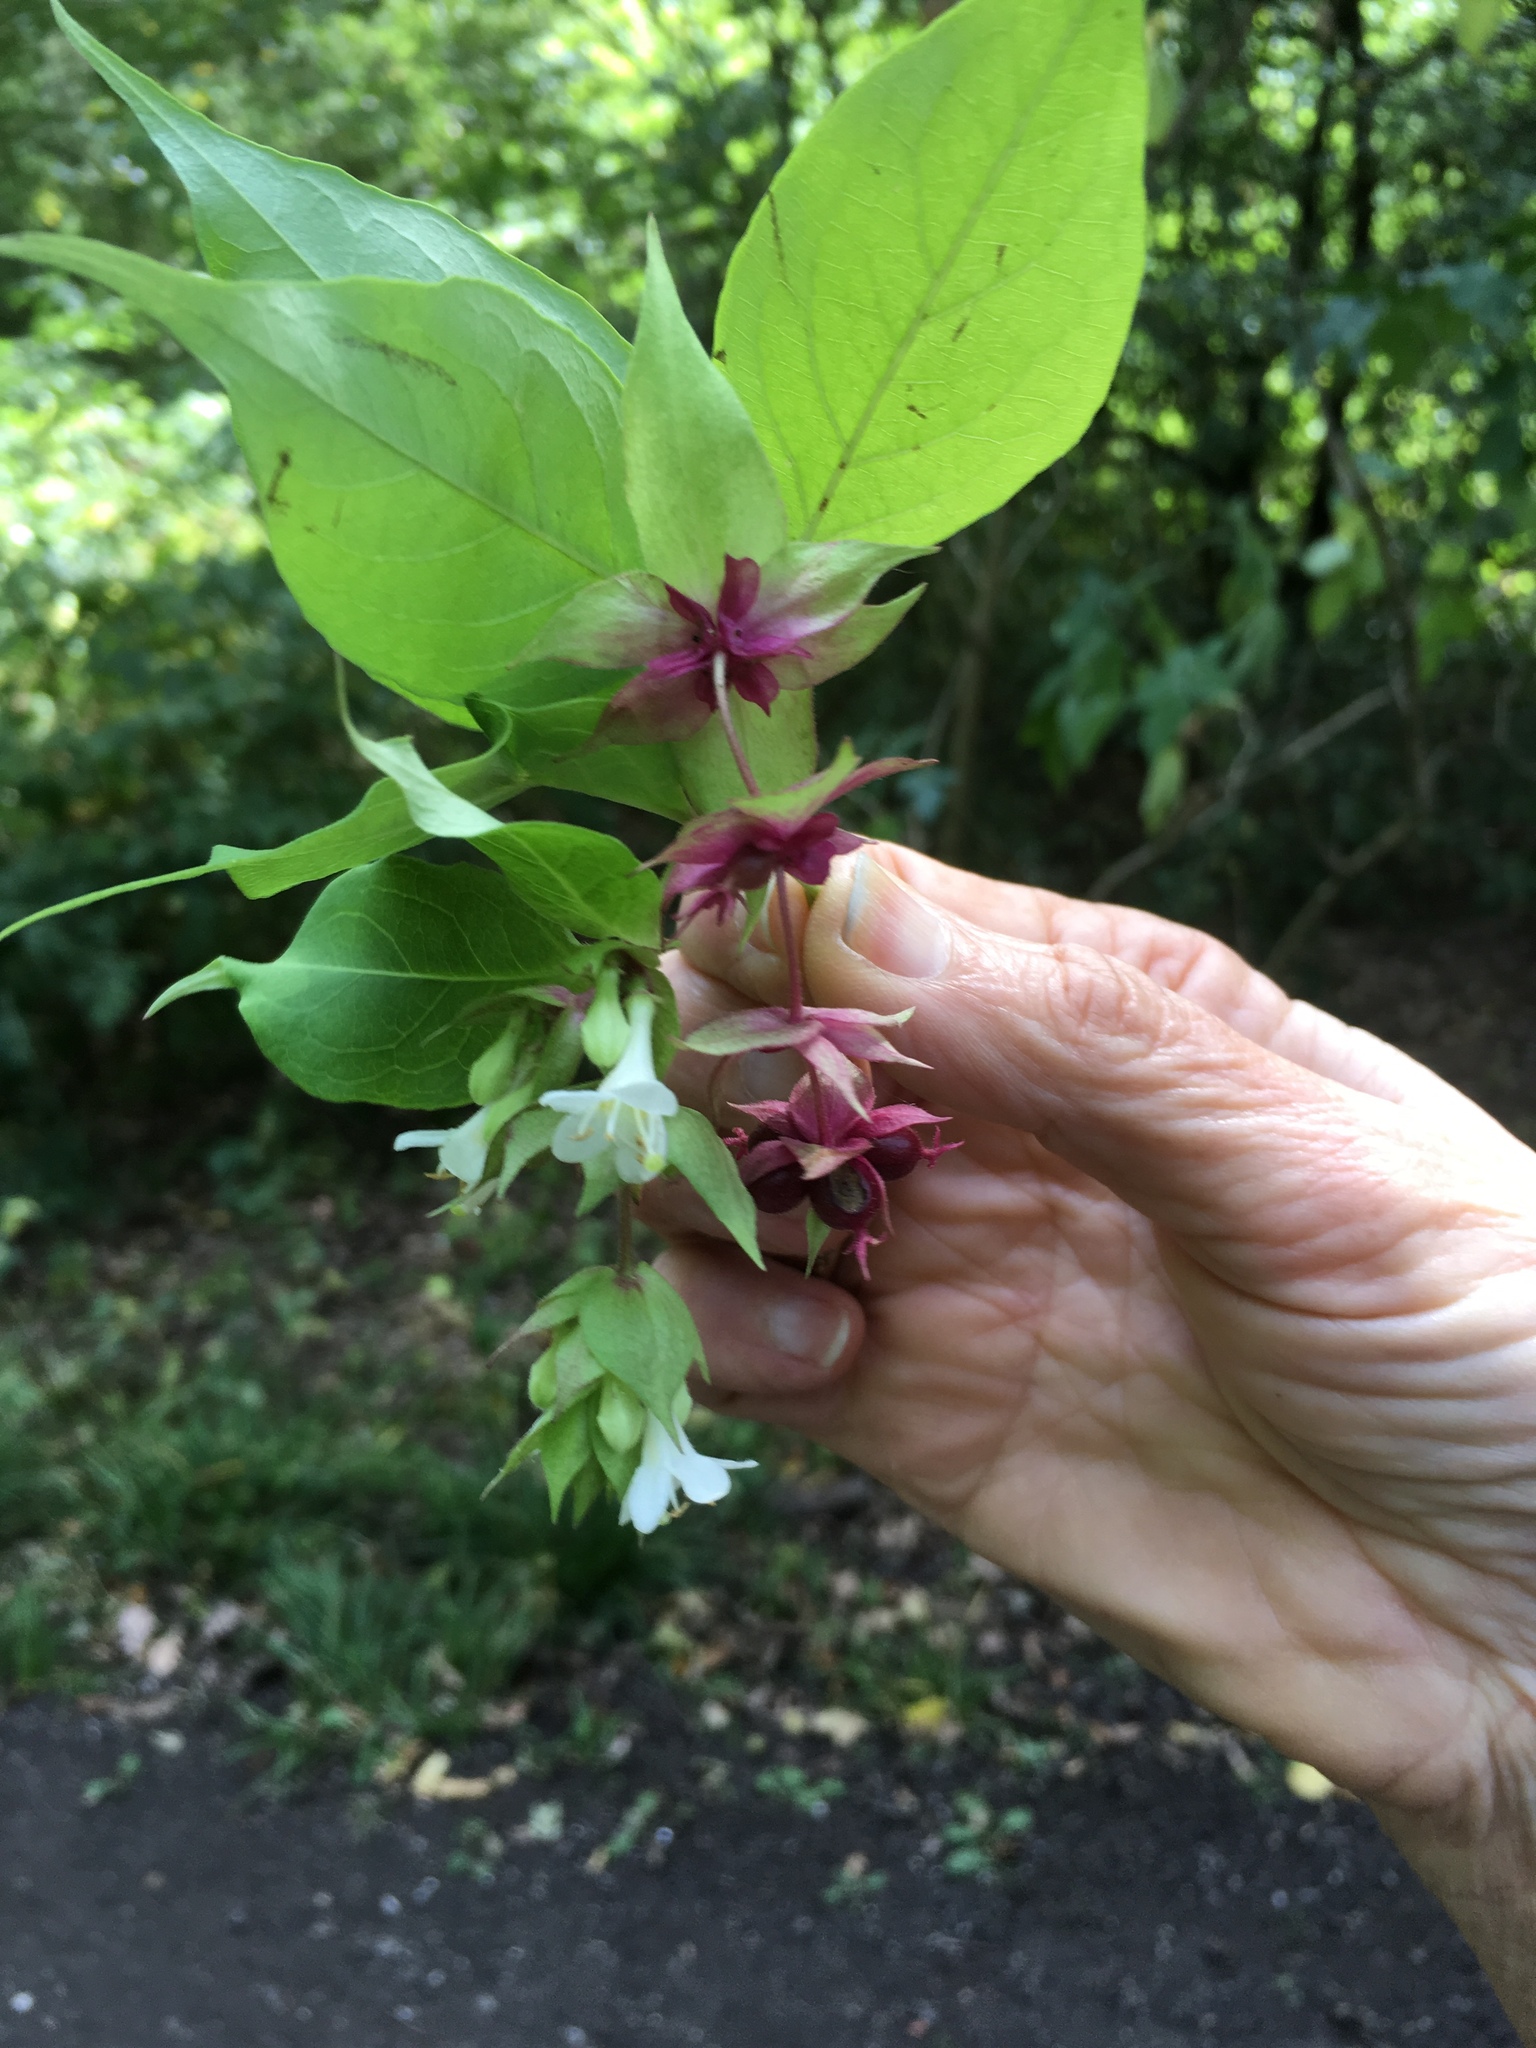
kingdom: Plantae
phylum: Tracheophyta
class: Magnoliopsida
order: Dipsacales
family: Caprifoliaceae
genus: Leycesteria
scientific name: Leycesteria formosa
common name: Himalayan honeysuckle
